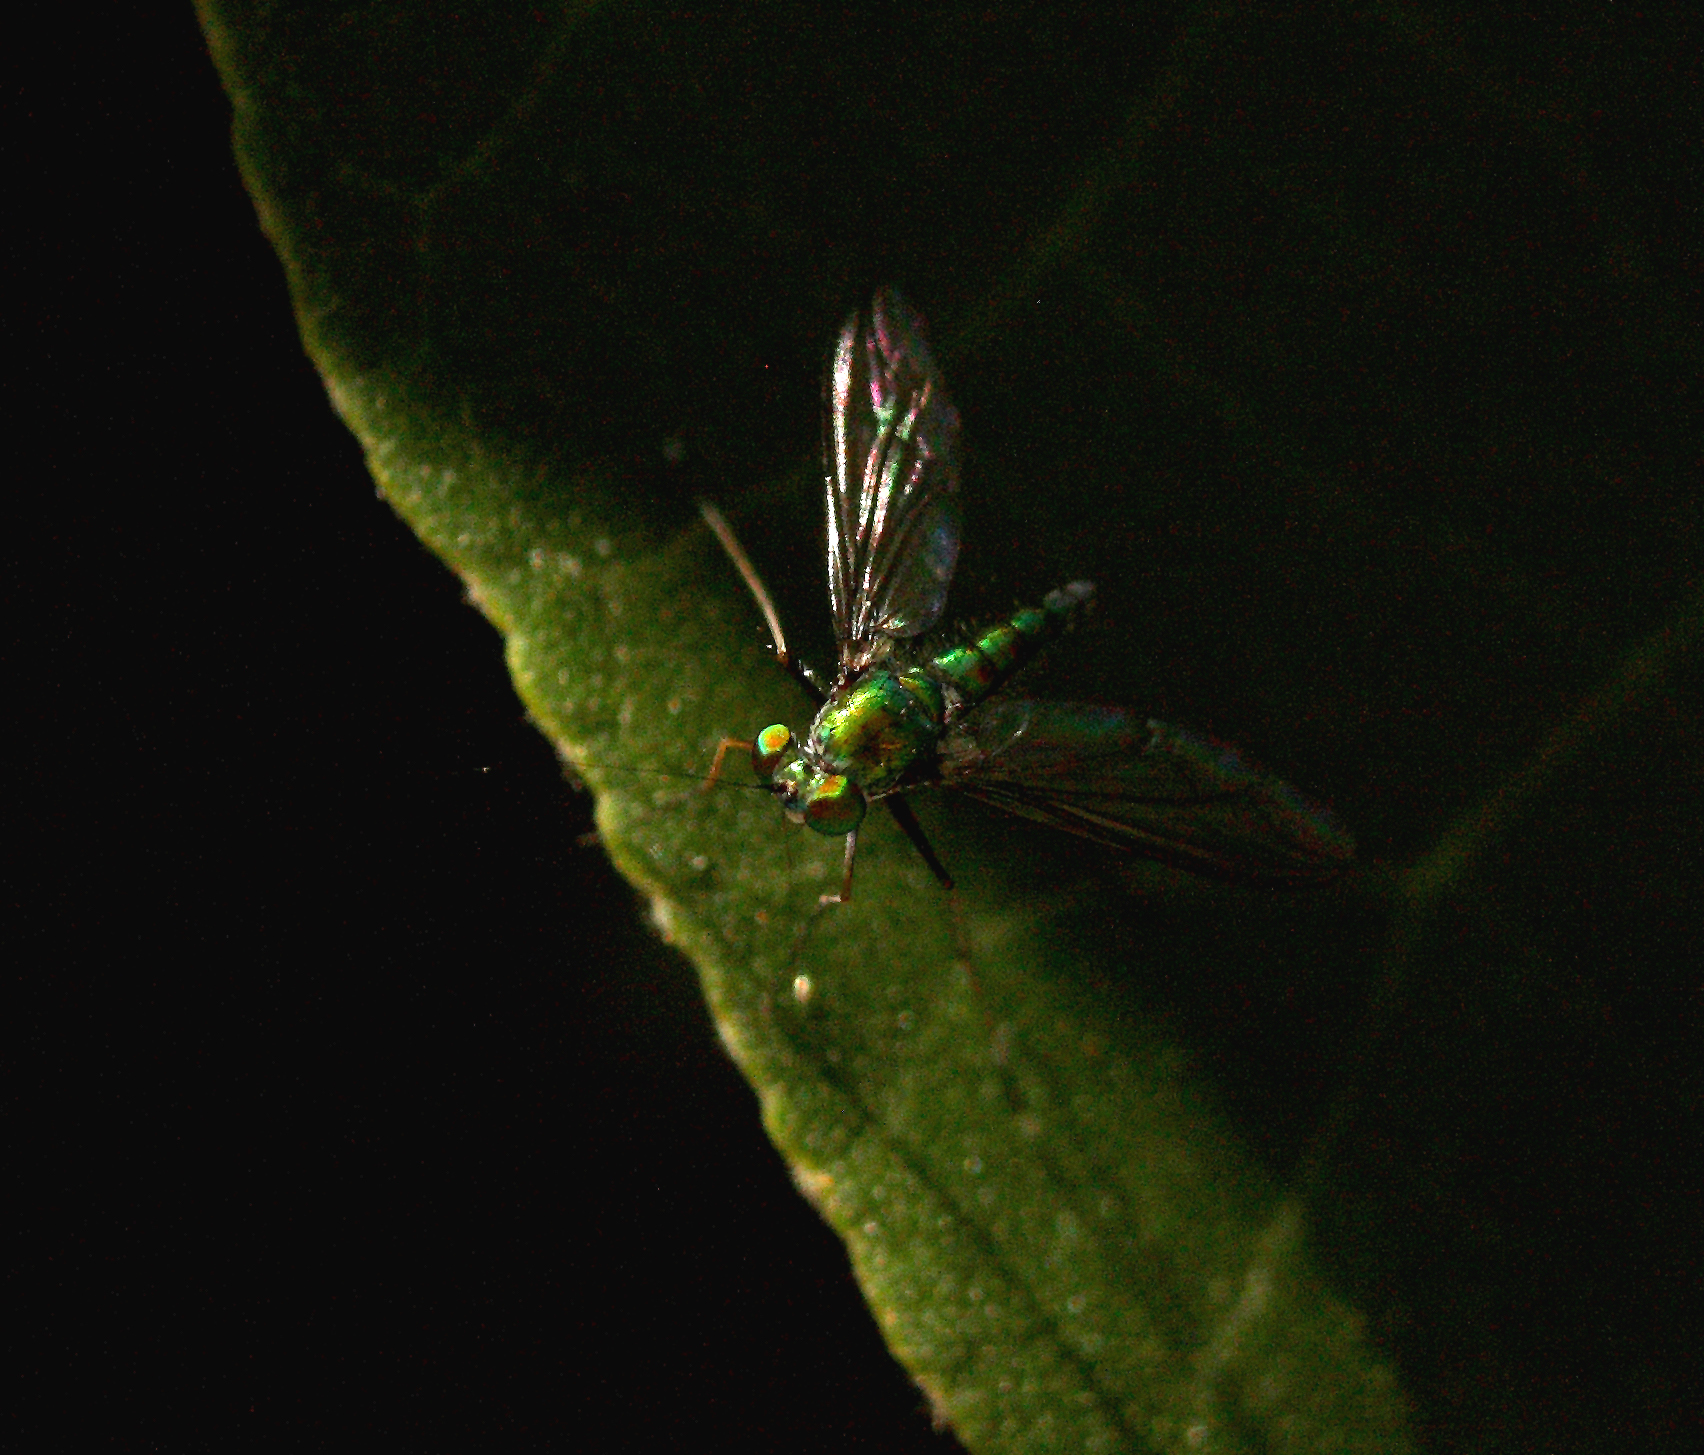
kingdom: Animalia
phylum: Arthropoda
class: Insecta
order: Diptera
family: Dolichopodidae
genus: Chrysosoma
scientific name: Chrysosoma leucopogon
